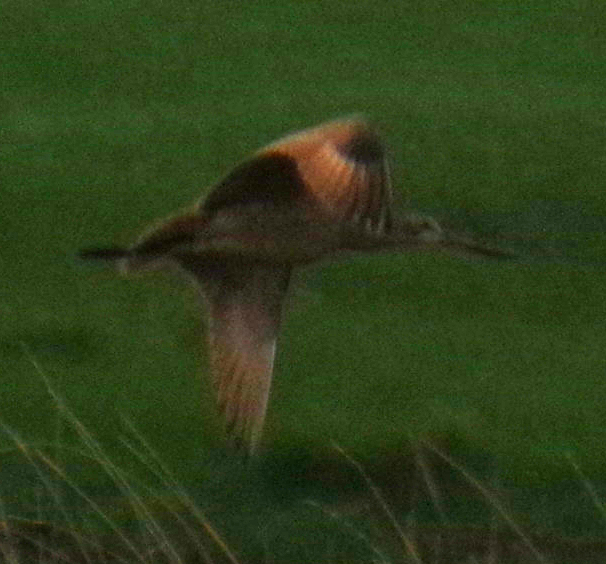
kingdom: Animalia
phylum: Chordata
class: Aves
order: Charadriiformes
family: Scolopacidae
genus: Limosa
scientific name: Limosa fedoa
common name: Marbled godwit
